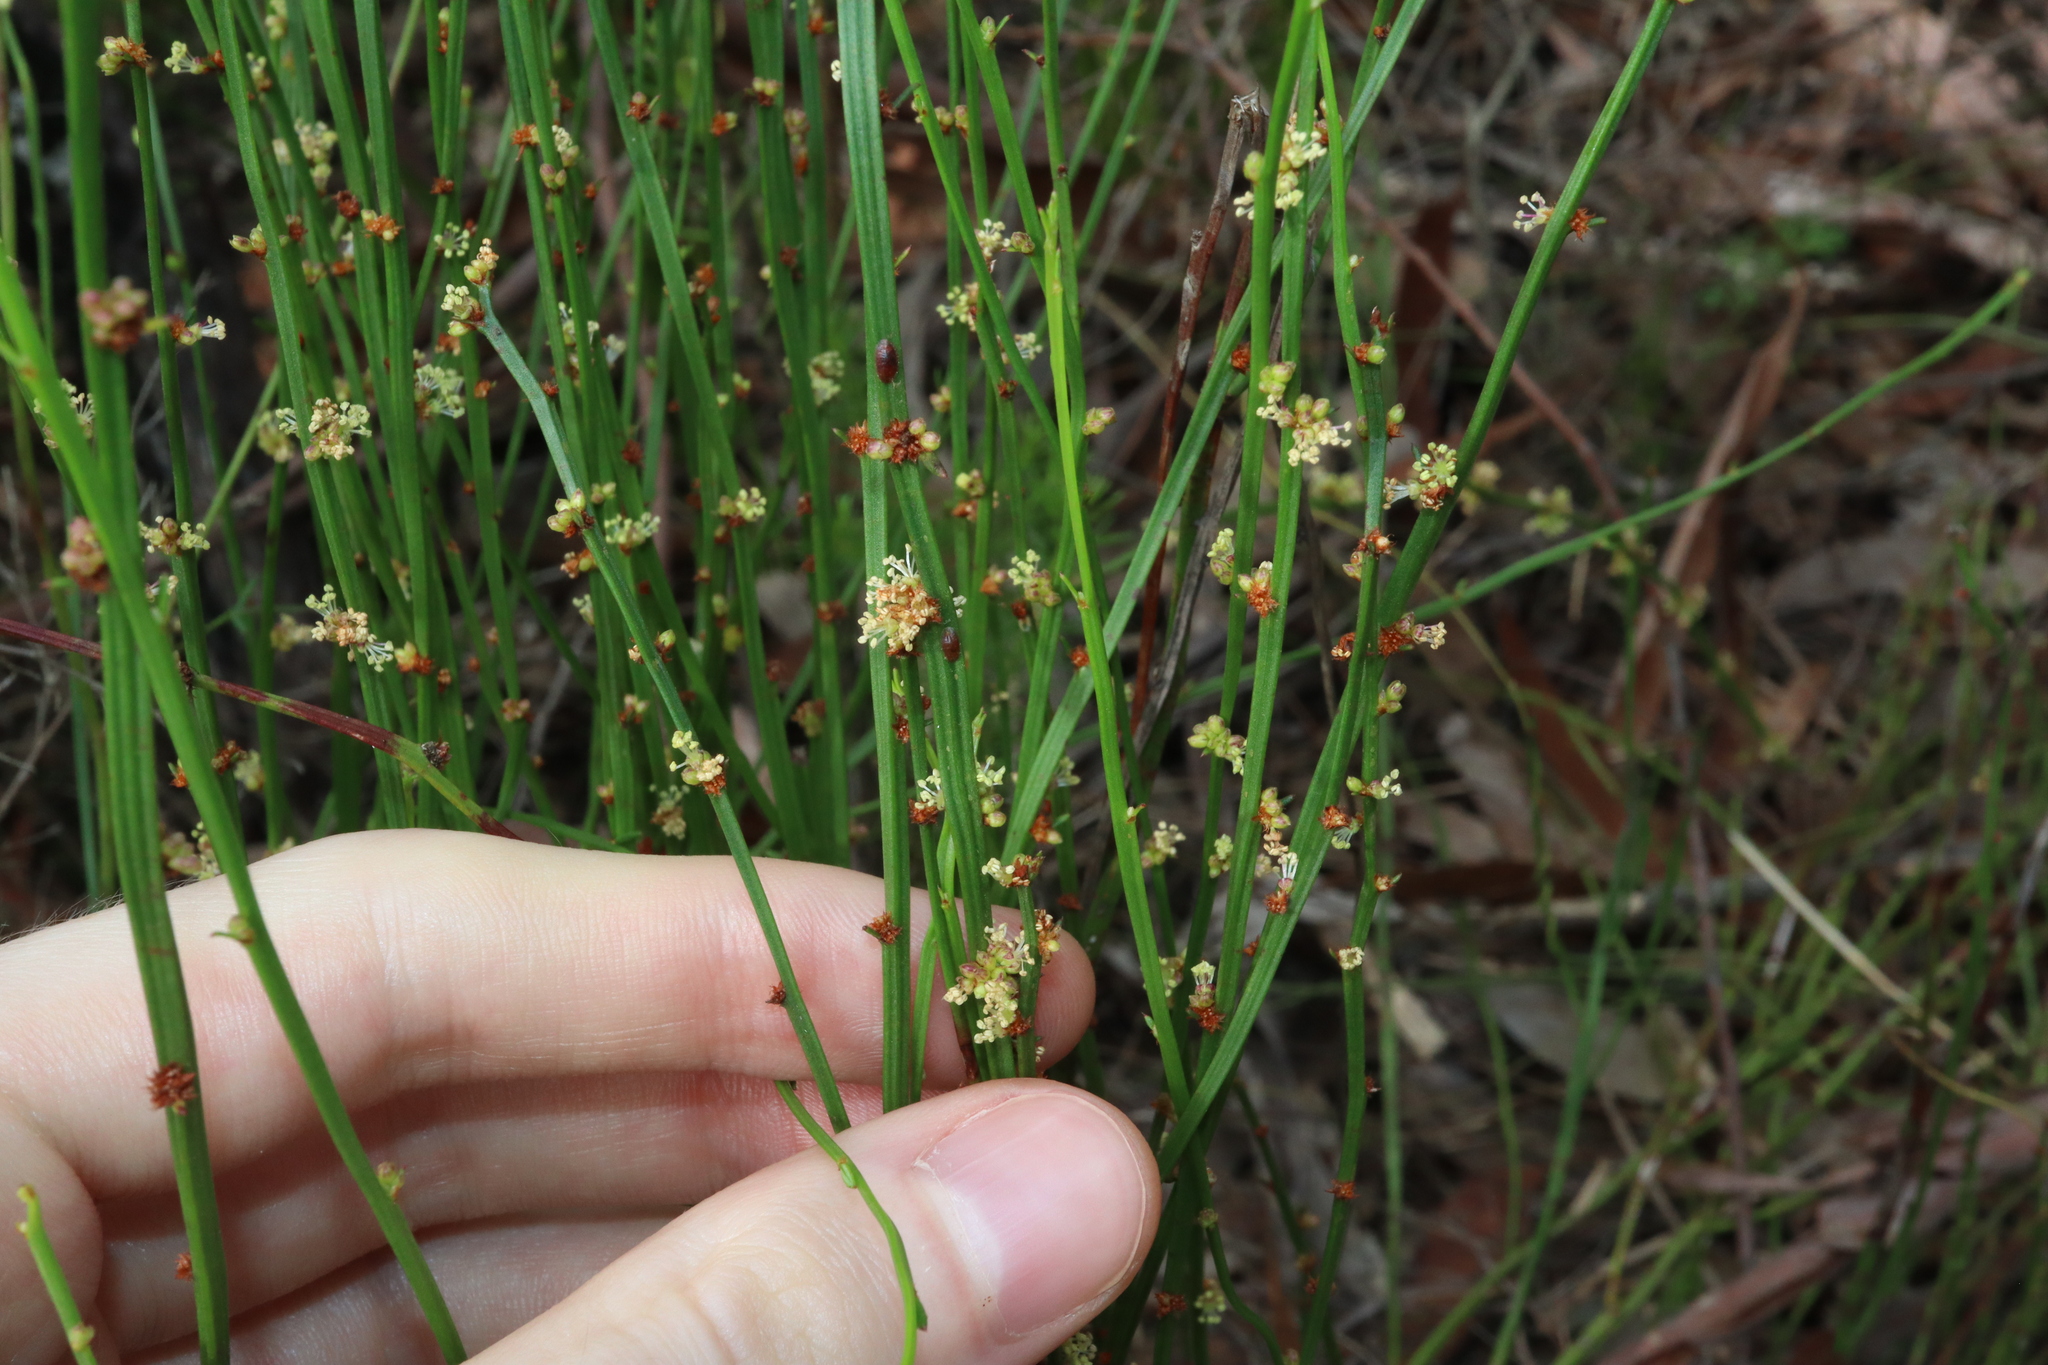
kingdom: Plantae
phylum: Tracheophyta
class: Magnoliopsida
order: Malpighiales
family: Euphorbiaceae
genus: Amperea
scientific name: Amperea xiphoclada
